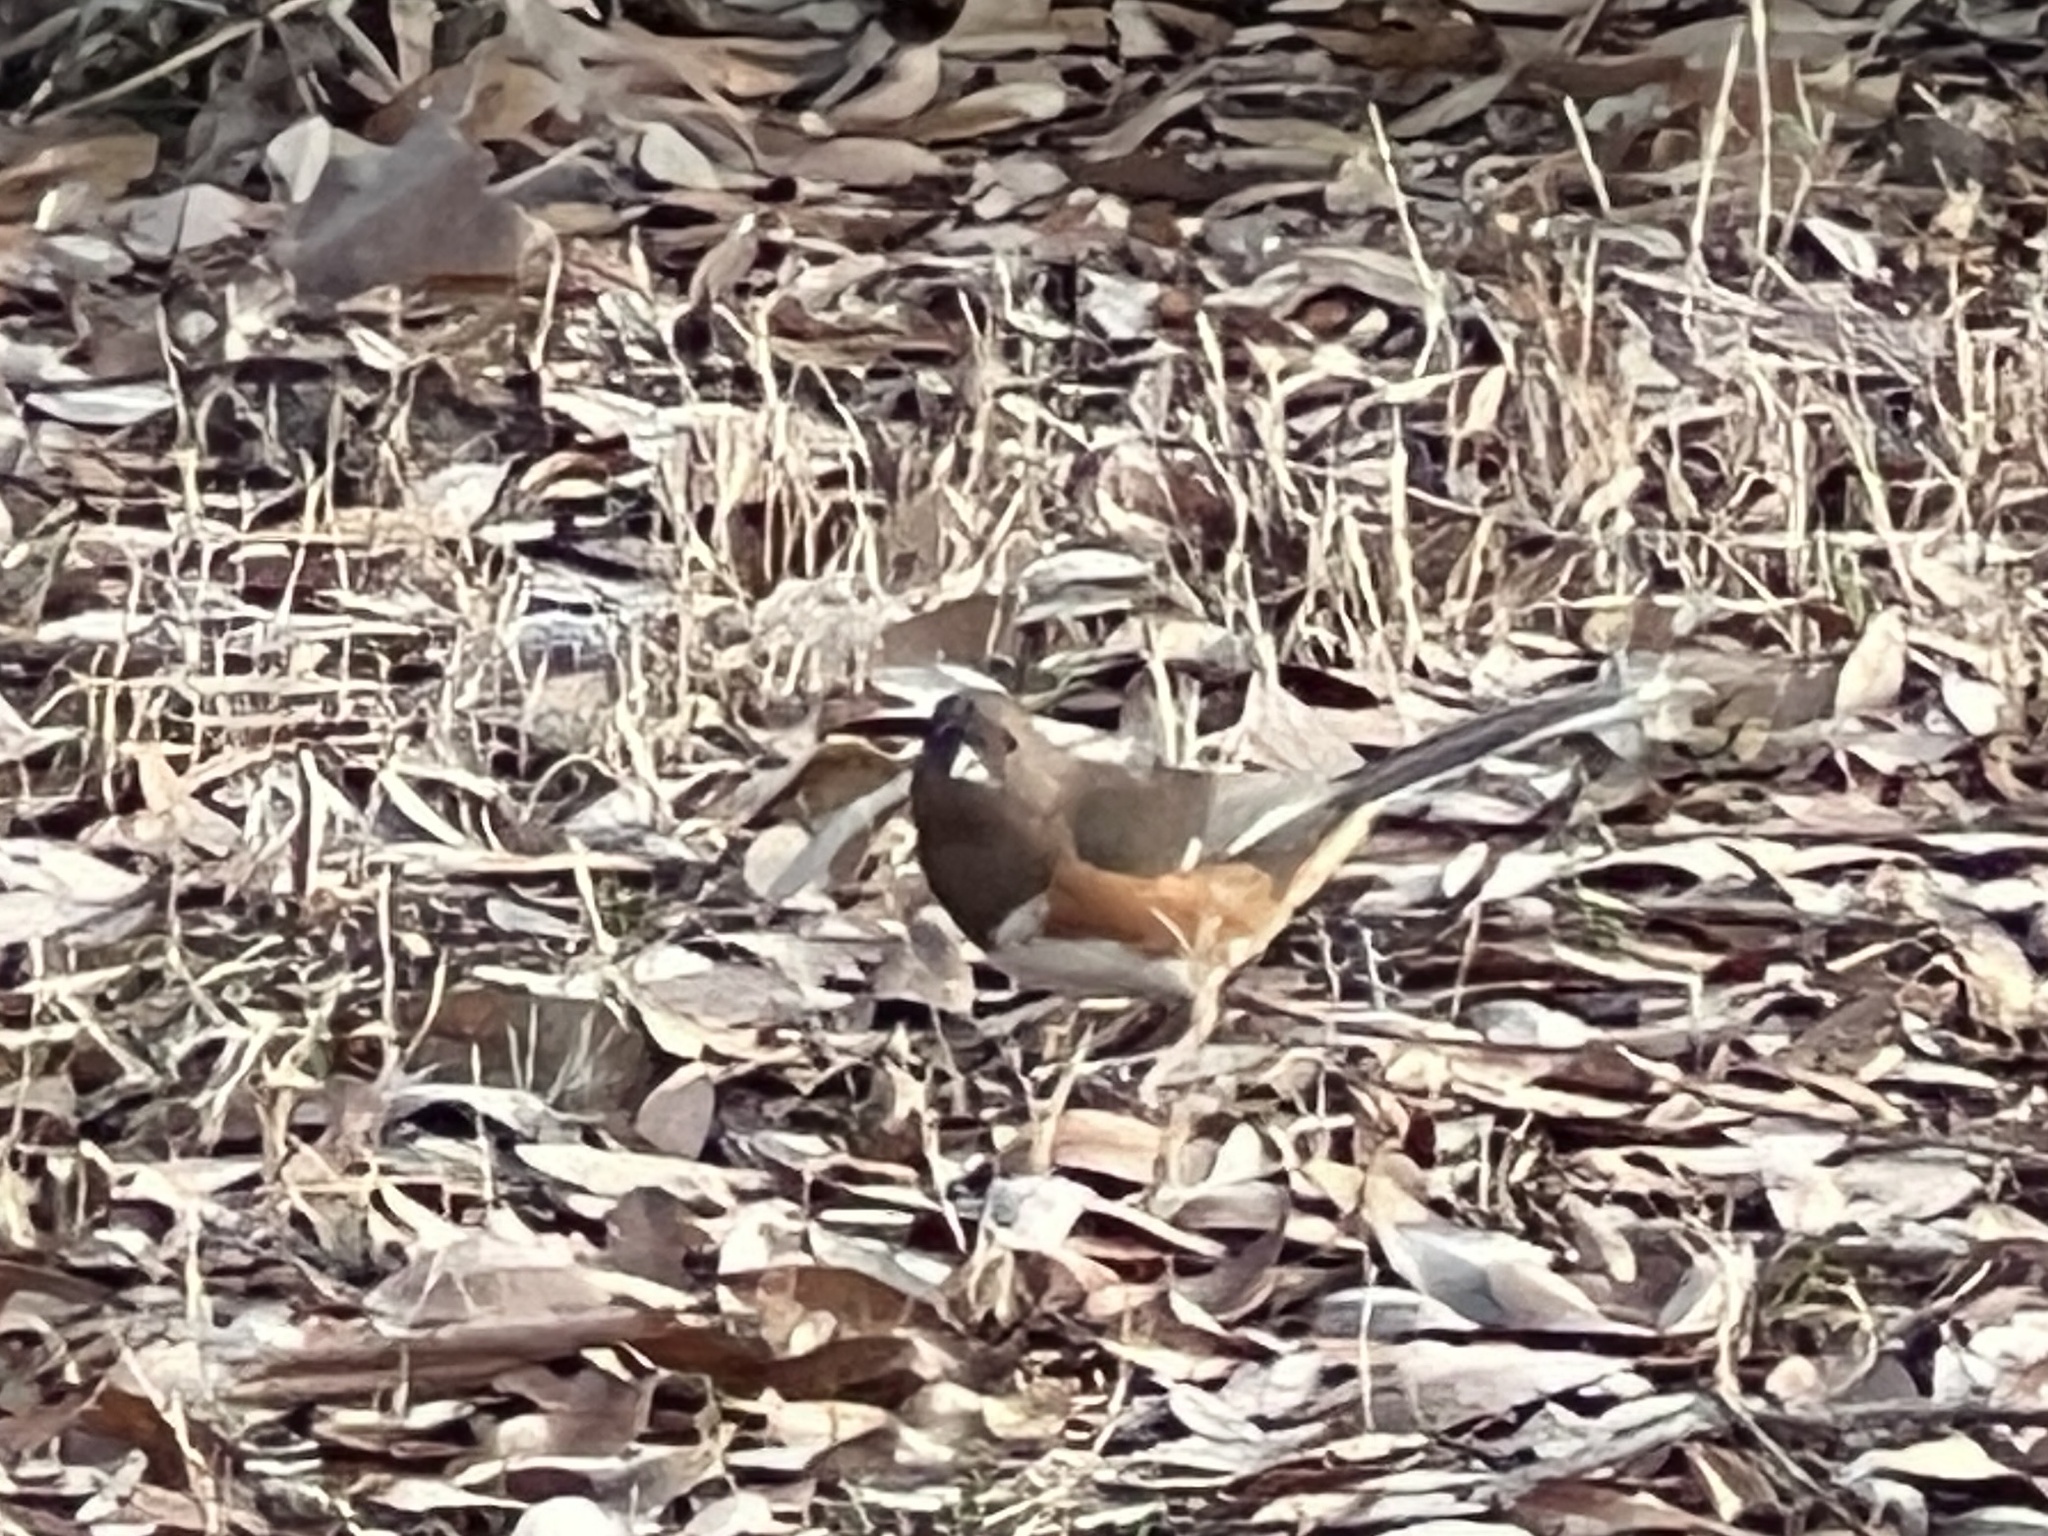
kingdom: Animalia
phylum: Chordata
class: Aves
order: Passeriformes
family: Passerellidae
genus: Pipilo
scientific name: Pipilo erythrophthalmus
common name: Eastern towhee
